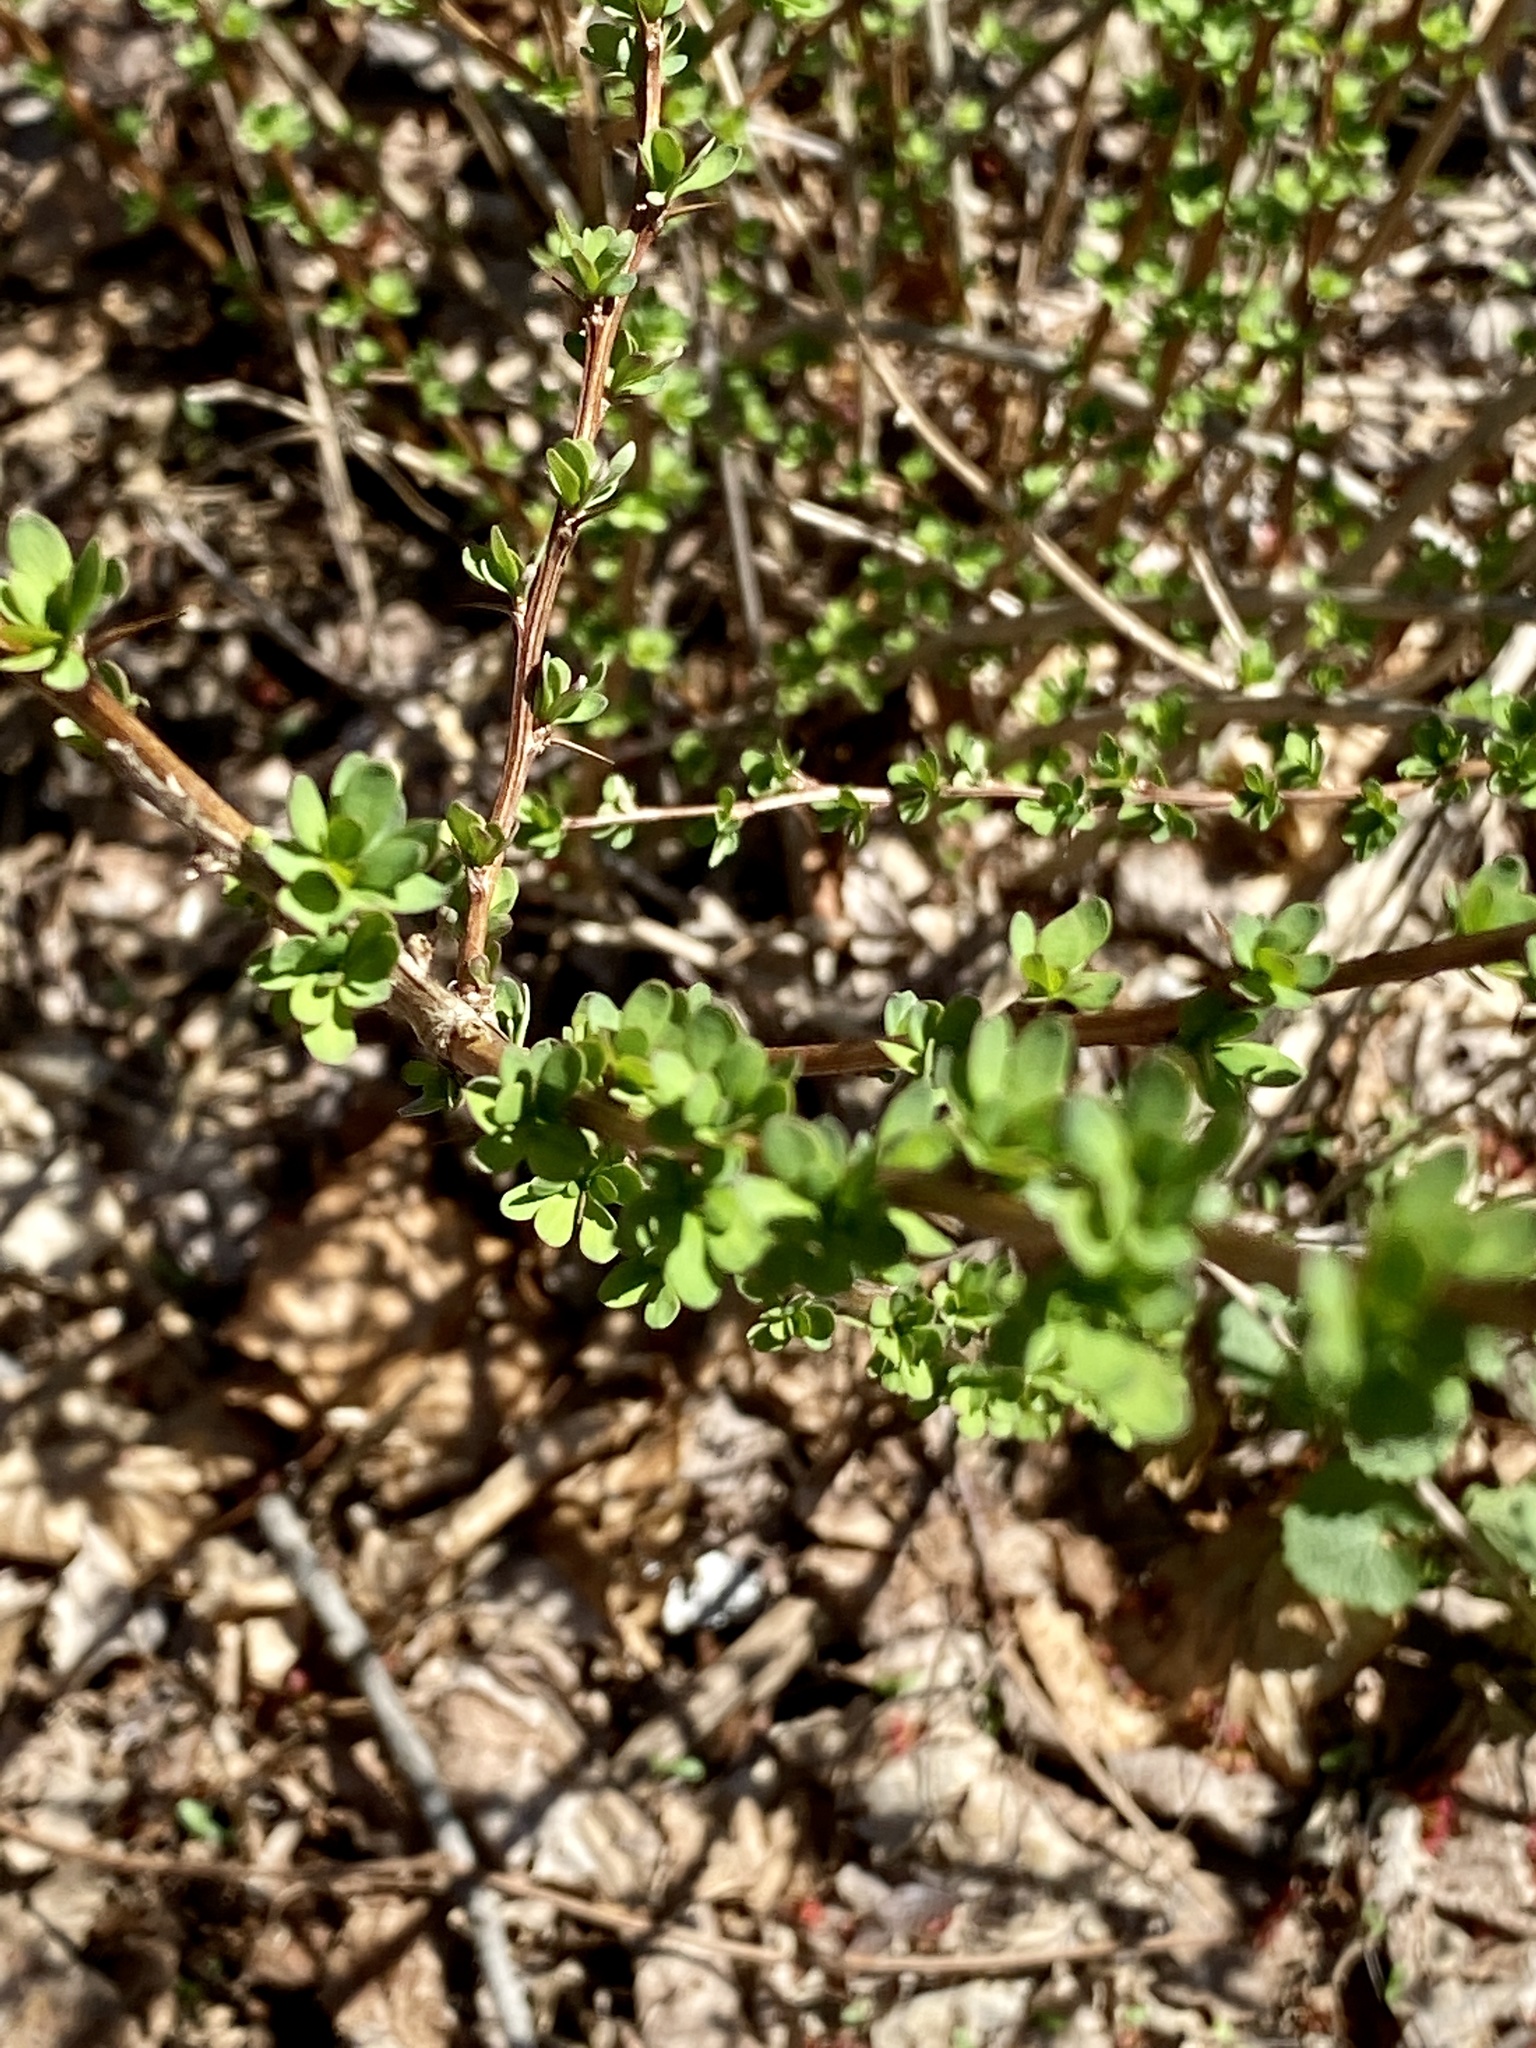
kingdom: Plantae
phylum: Tracheophyta
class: Magnoliopsida
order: Ranunculales
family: Berberidaceae
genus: Berberis
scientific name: Berberis thunbergii
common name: Japanese barberry
